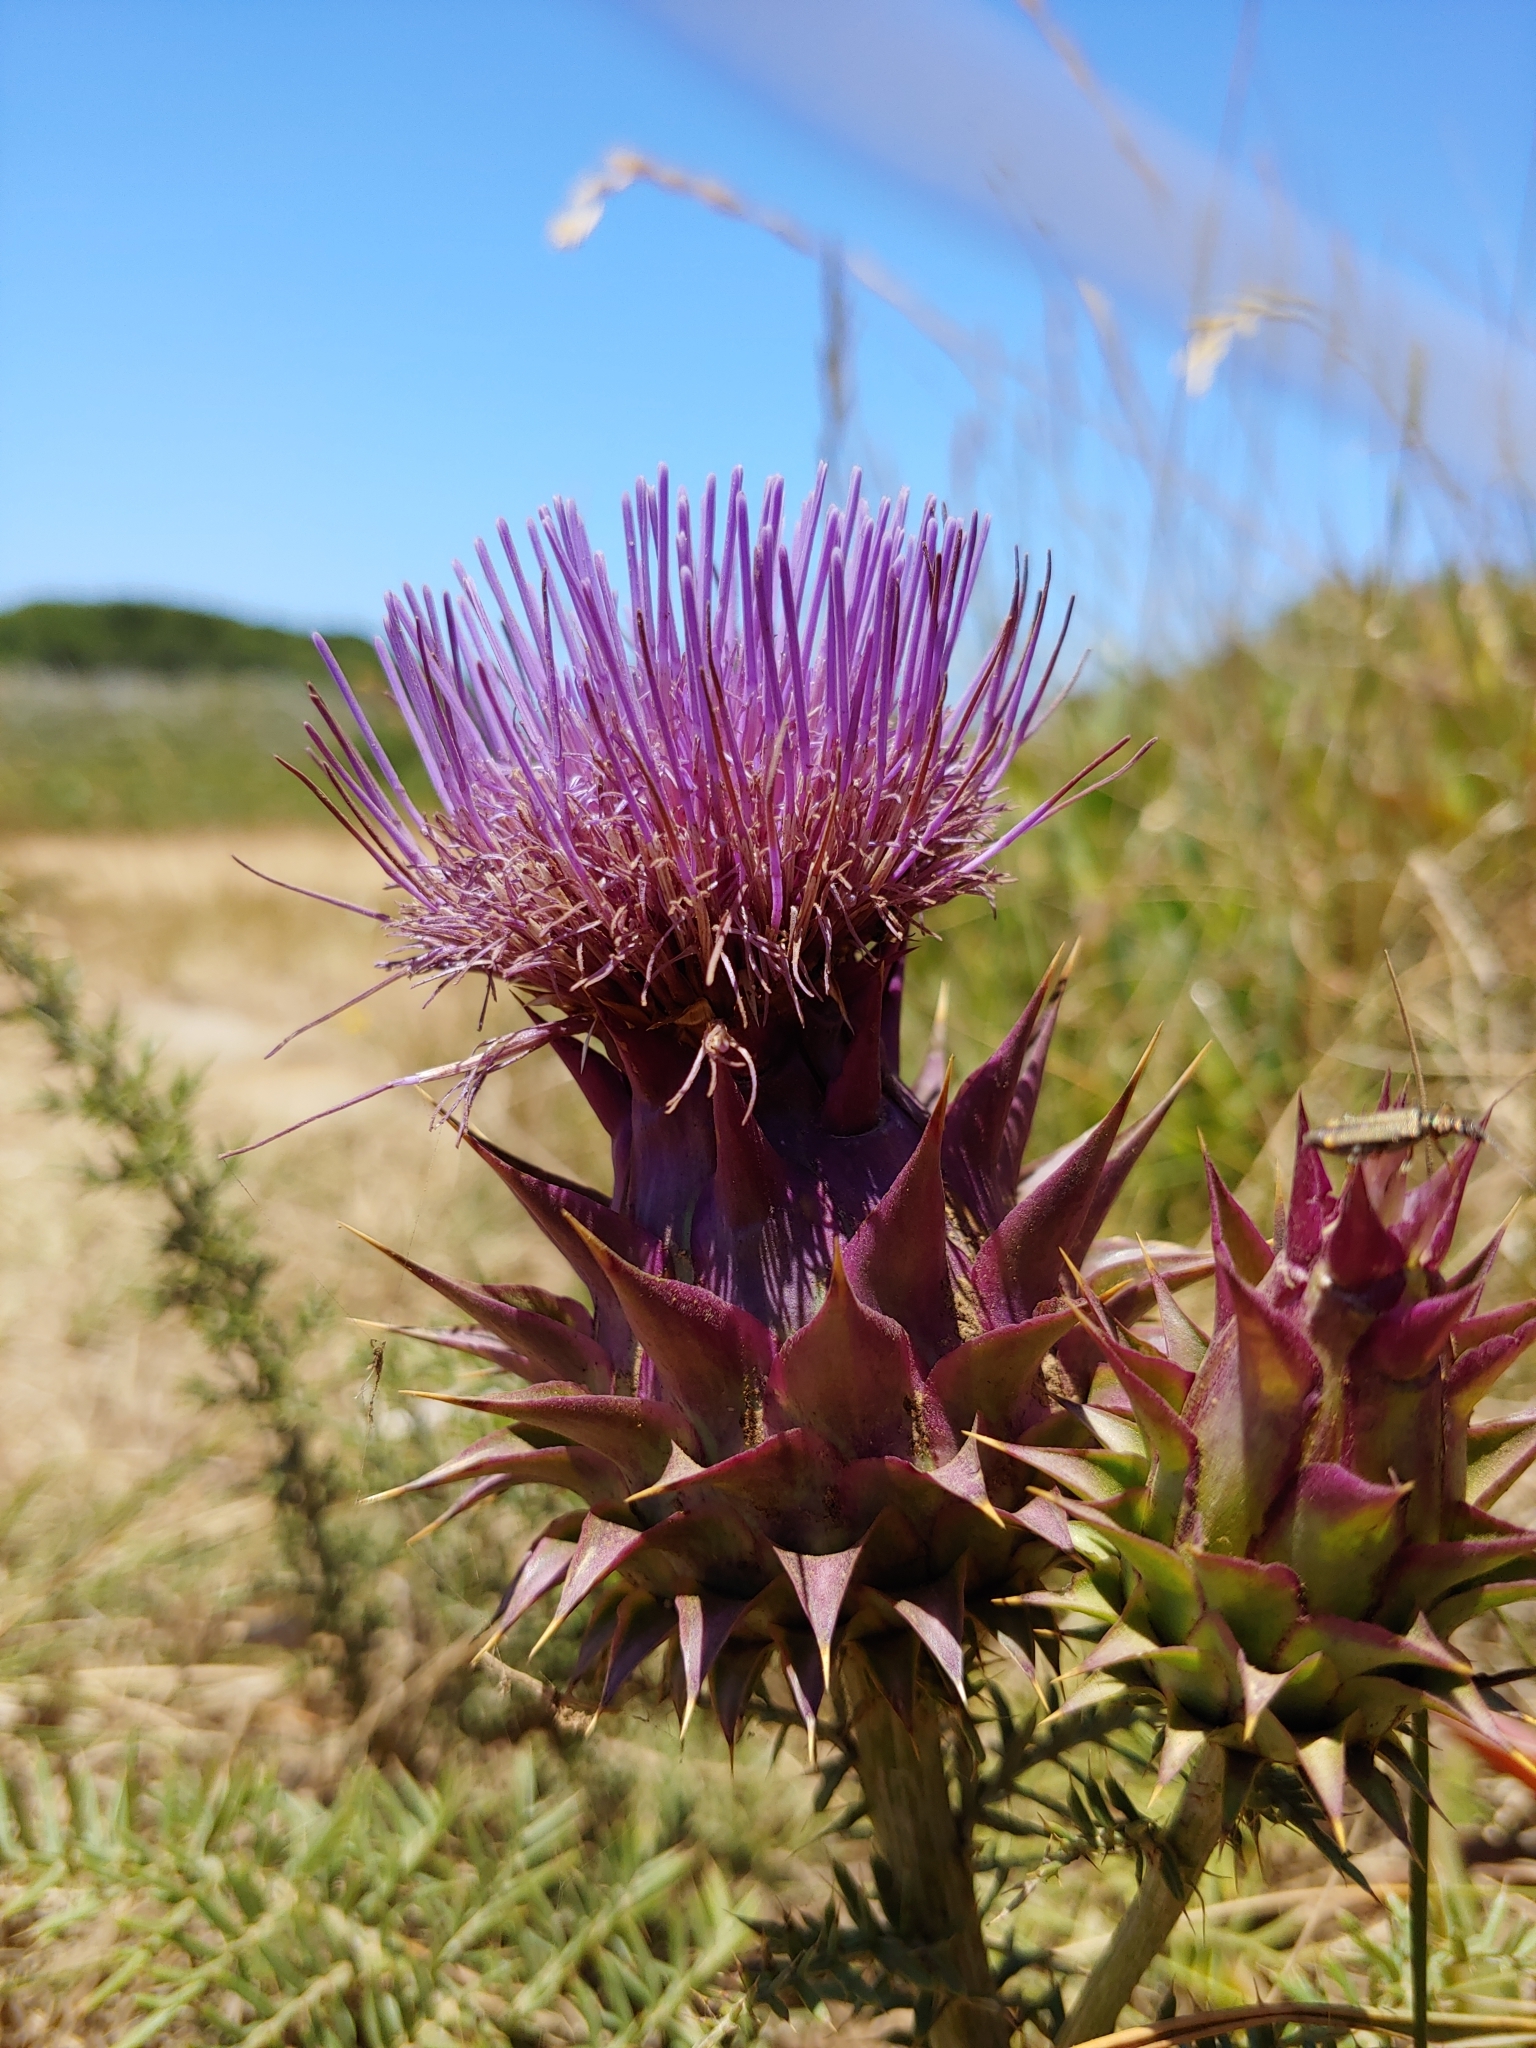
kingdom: Plantae
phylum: Tracheophyta
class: Magnoliopsida
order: Asterales
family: Asteraceae
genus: Cynara
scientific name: Cynara humilis
